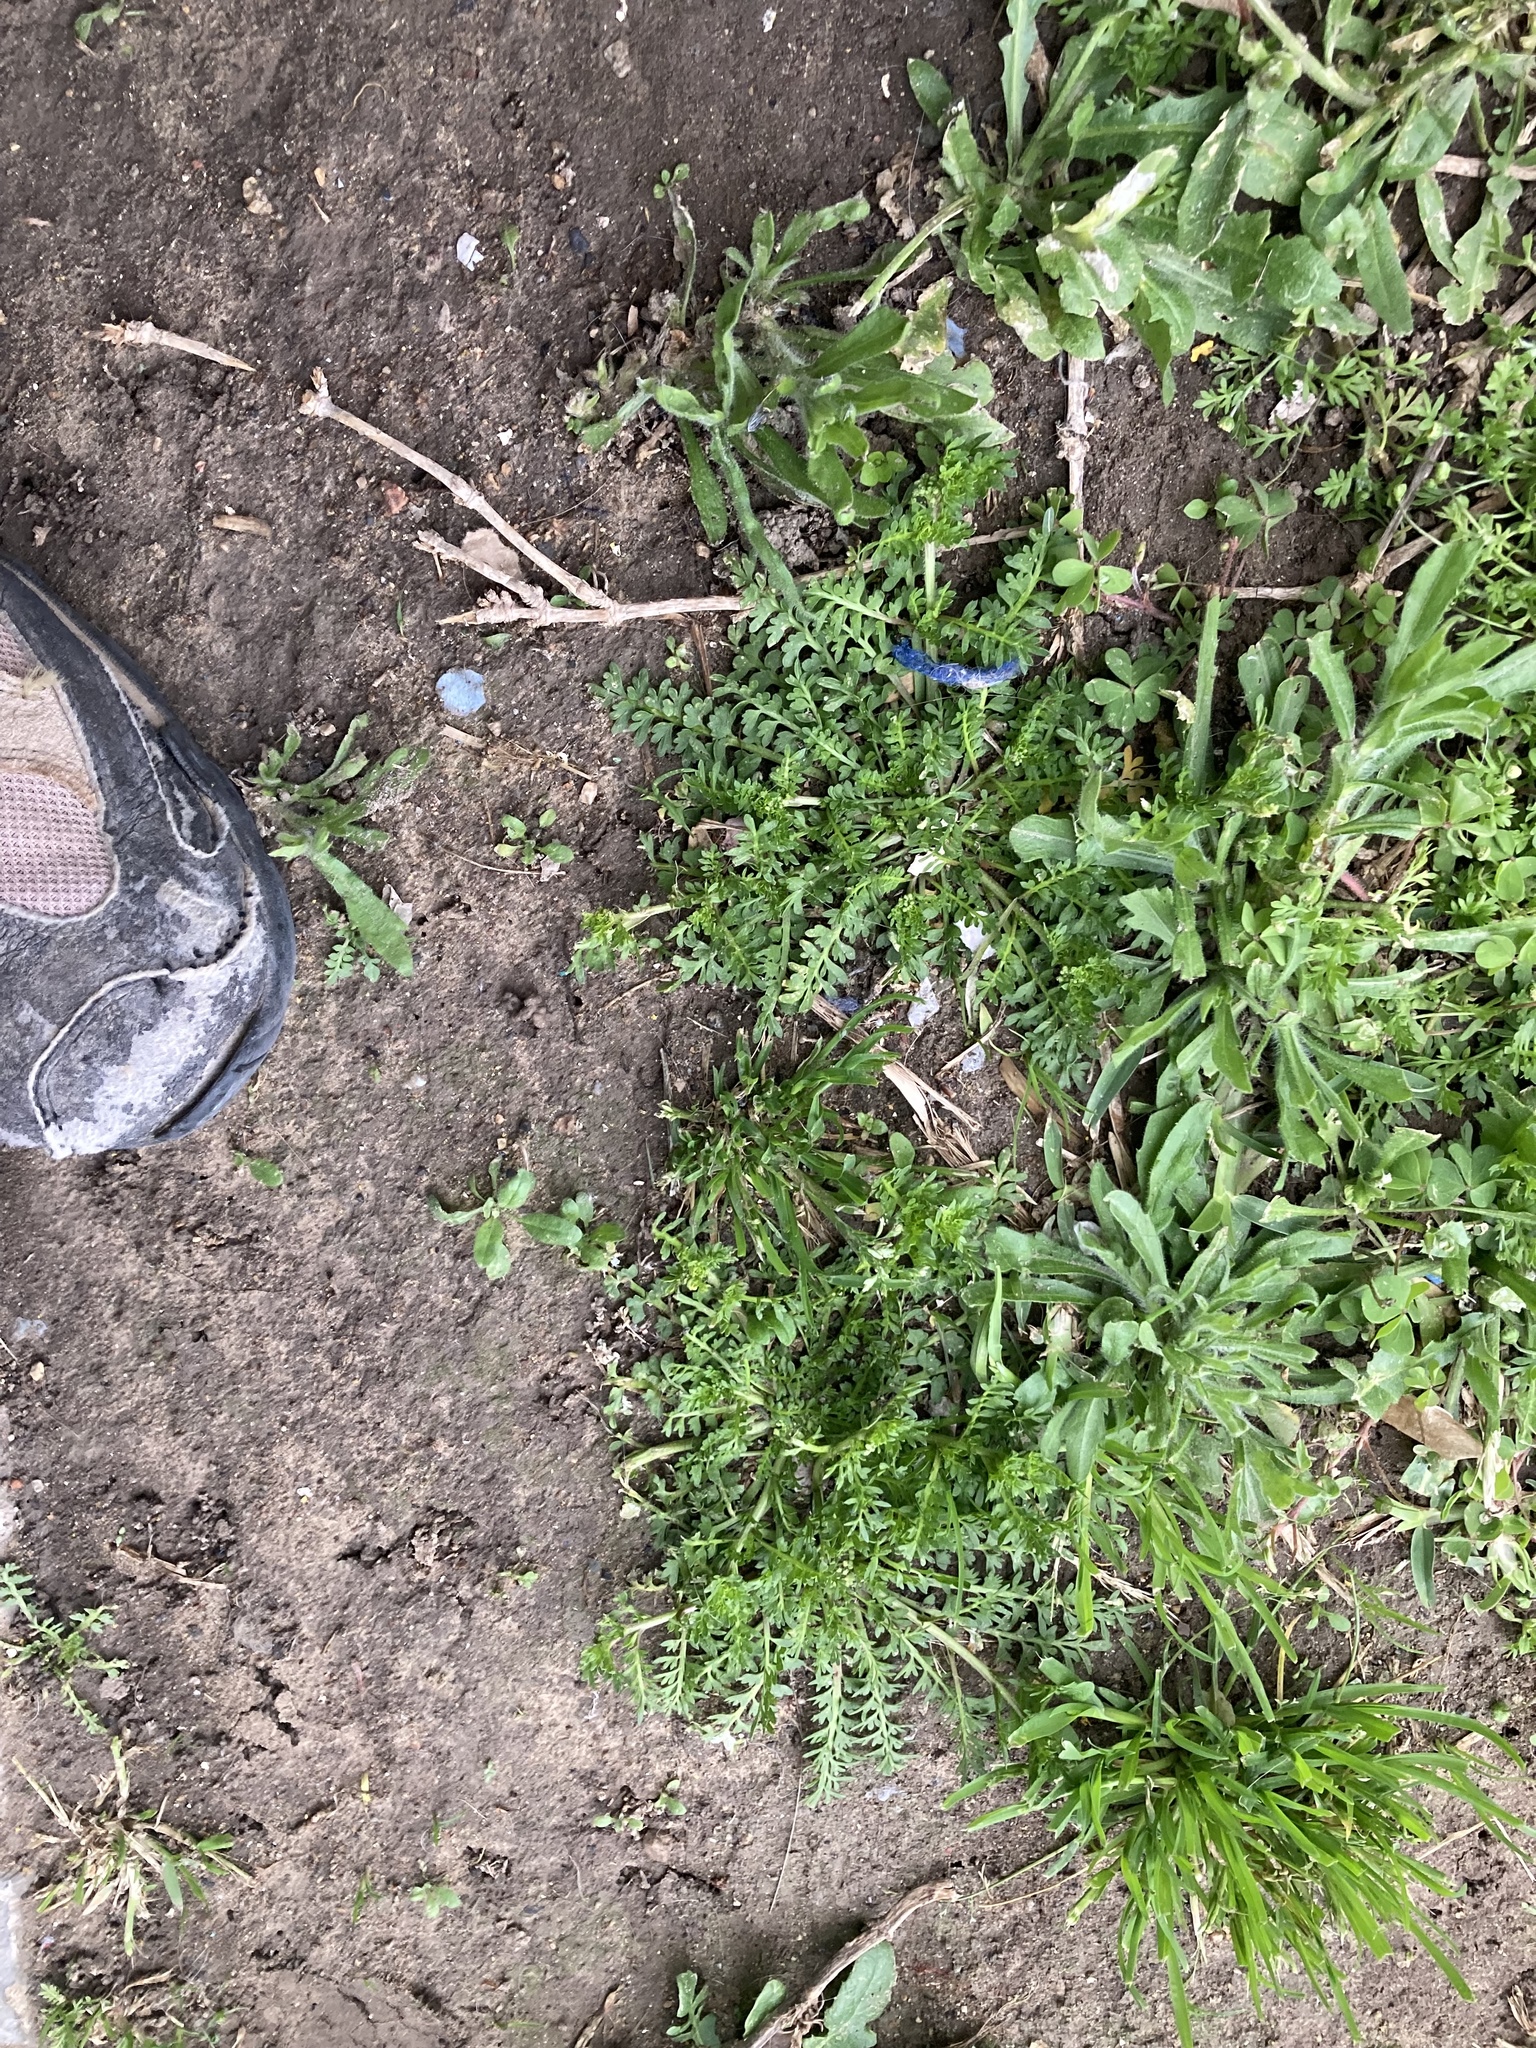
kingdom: Plantae
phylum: Tracheophyta
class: Magnoliopsida
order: Brassicales
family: Brassicaceae
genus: Lepidium
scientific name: Lepidium didymum
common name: Lesser swinecress
